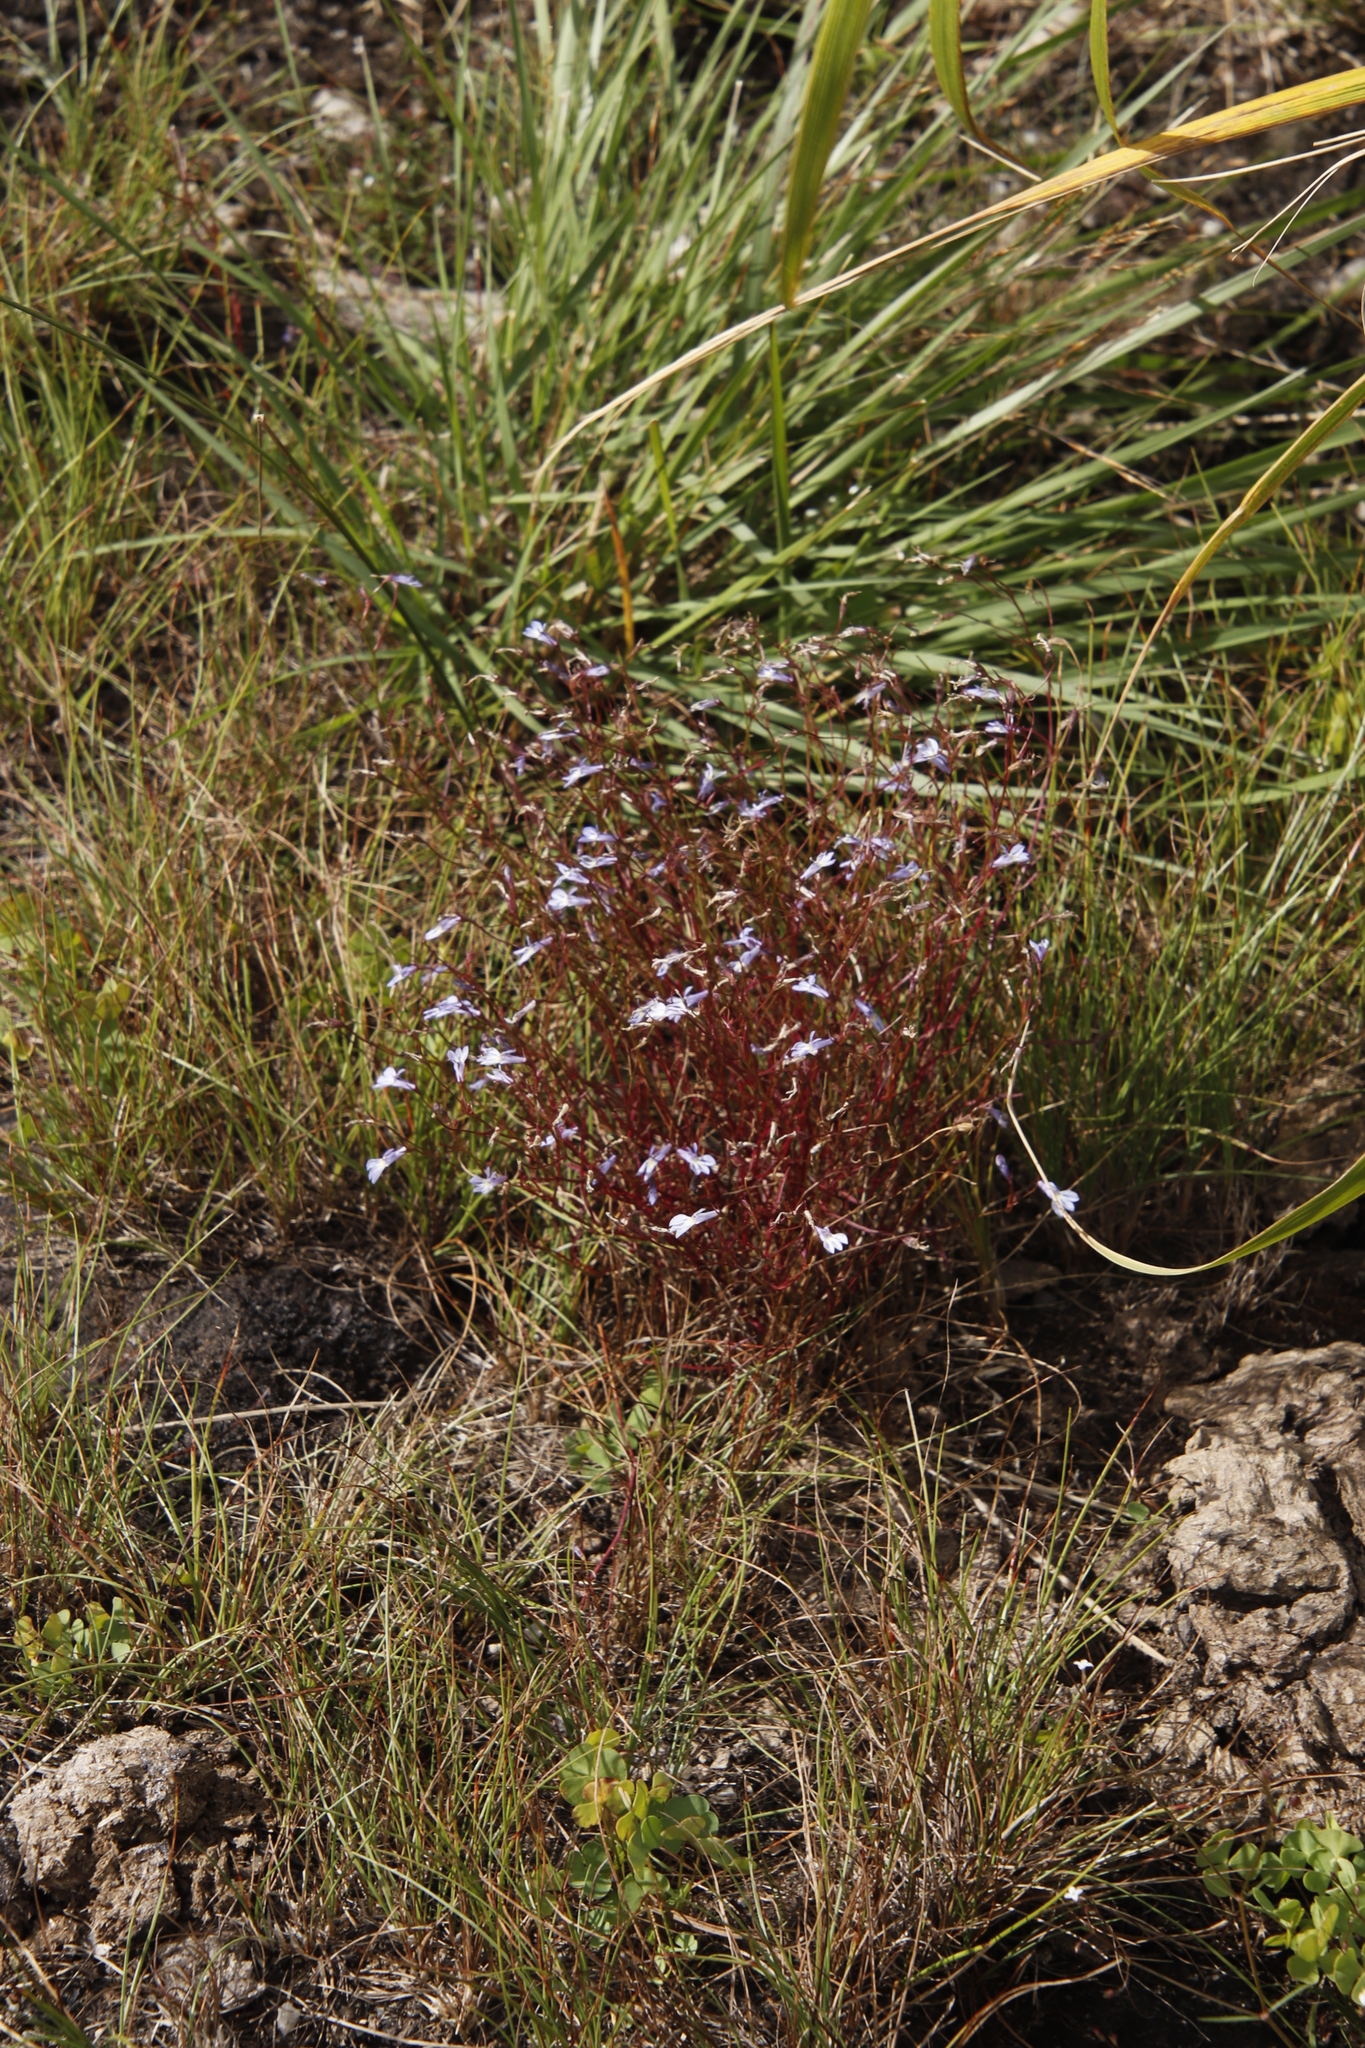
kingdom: Plantae
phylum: Tracheophyta
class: Magnoliopsida
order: Asterales
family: Campanulaceae
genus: Lobelia
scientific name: Lobelia erinus
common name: Edging lobelia
